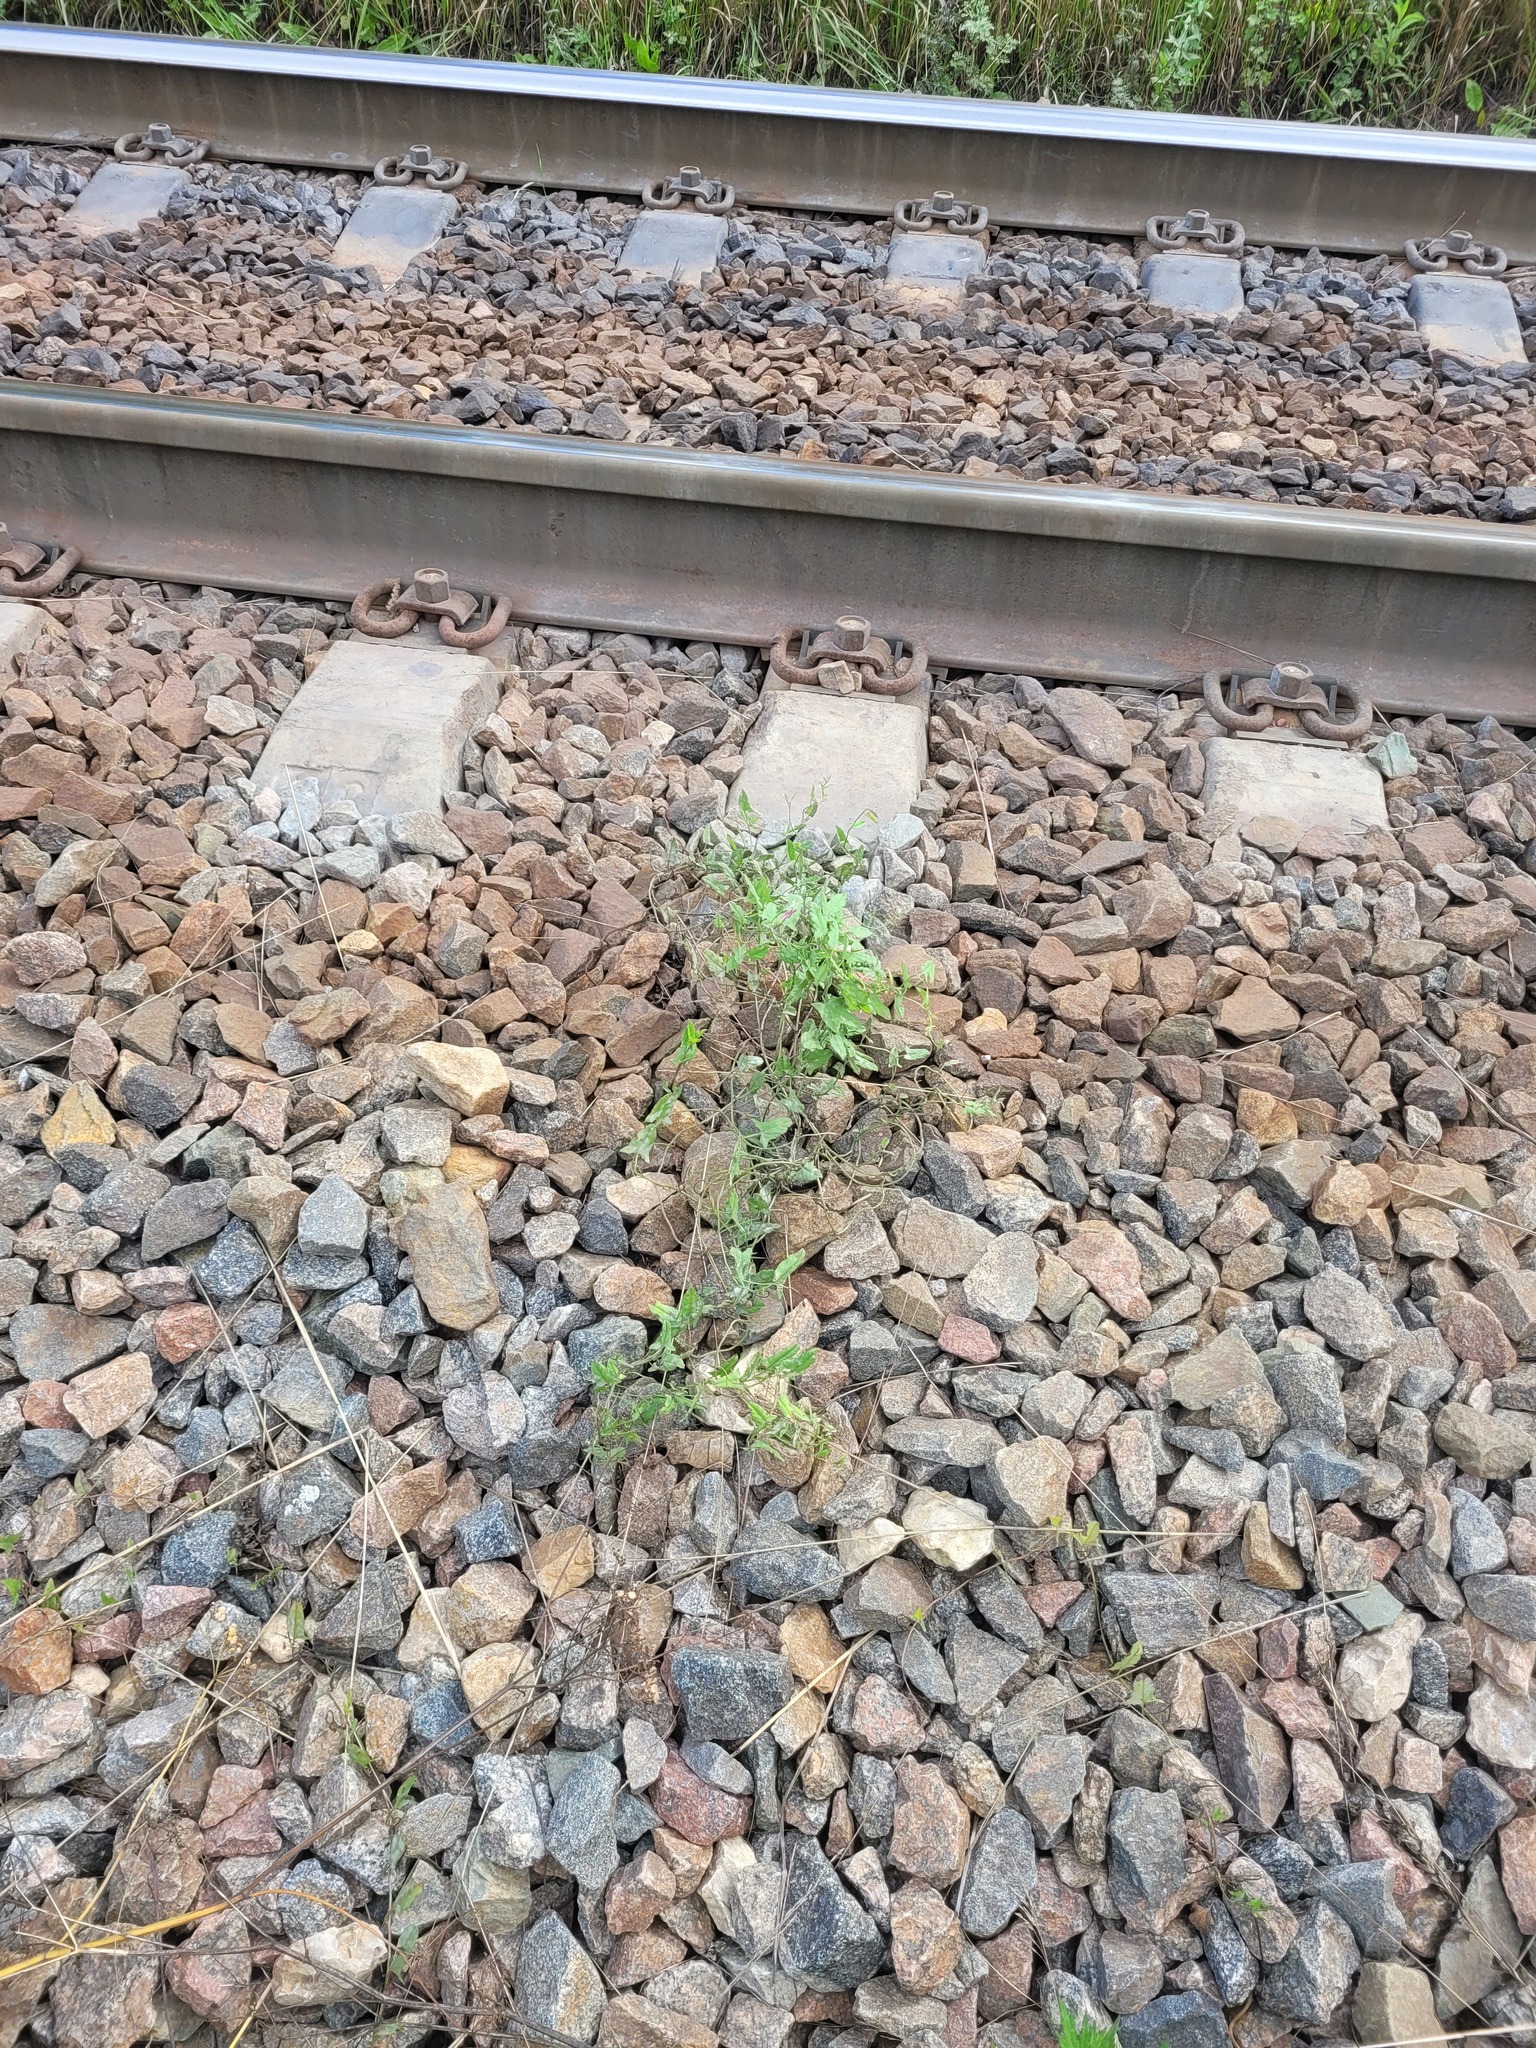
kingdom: Plantae
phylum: Tracheophyta
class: Magnoliopsida
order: Solanales
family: Convolvulaceae
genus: Convolvulus
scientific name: Convolvulus arvensis
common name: Field bindweed
